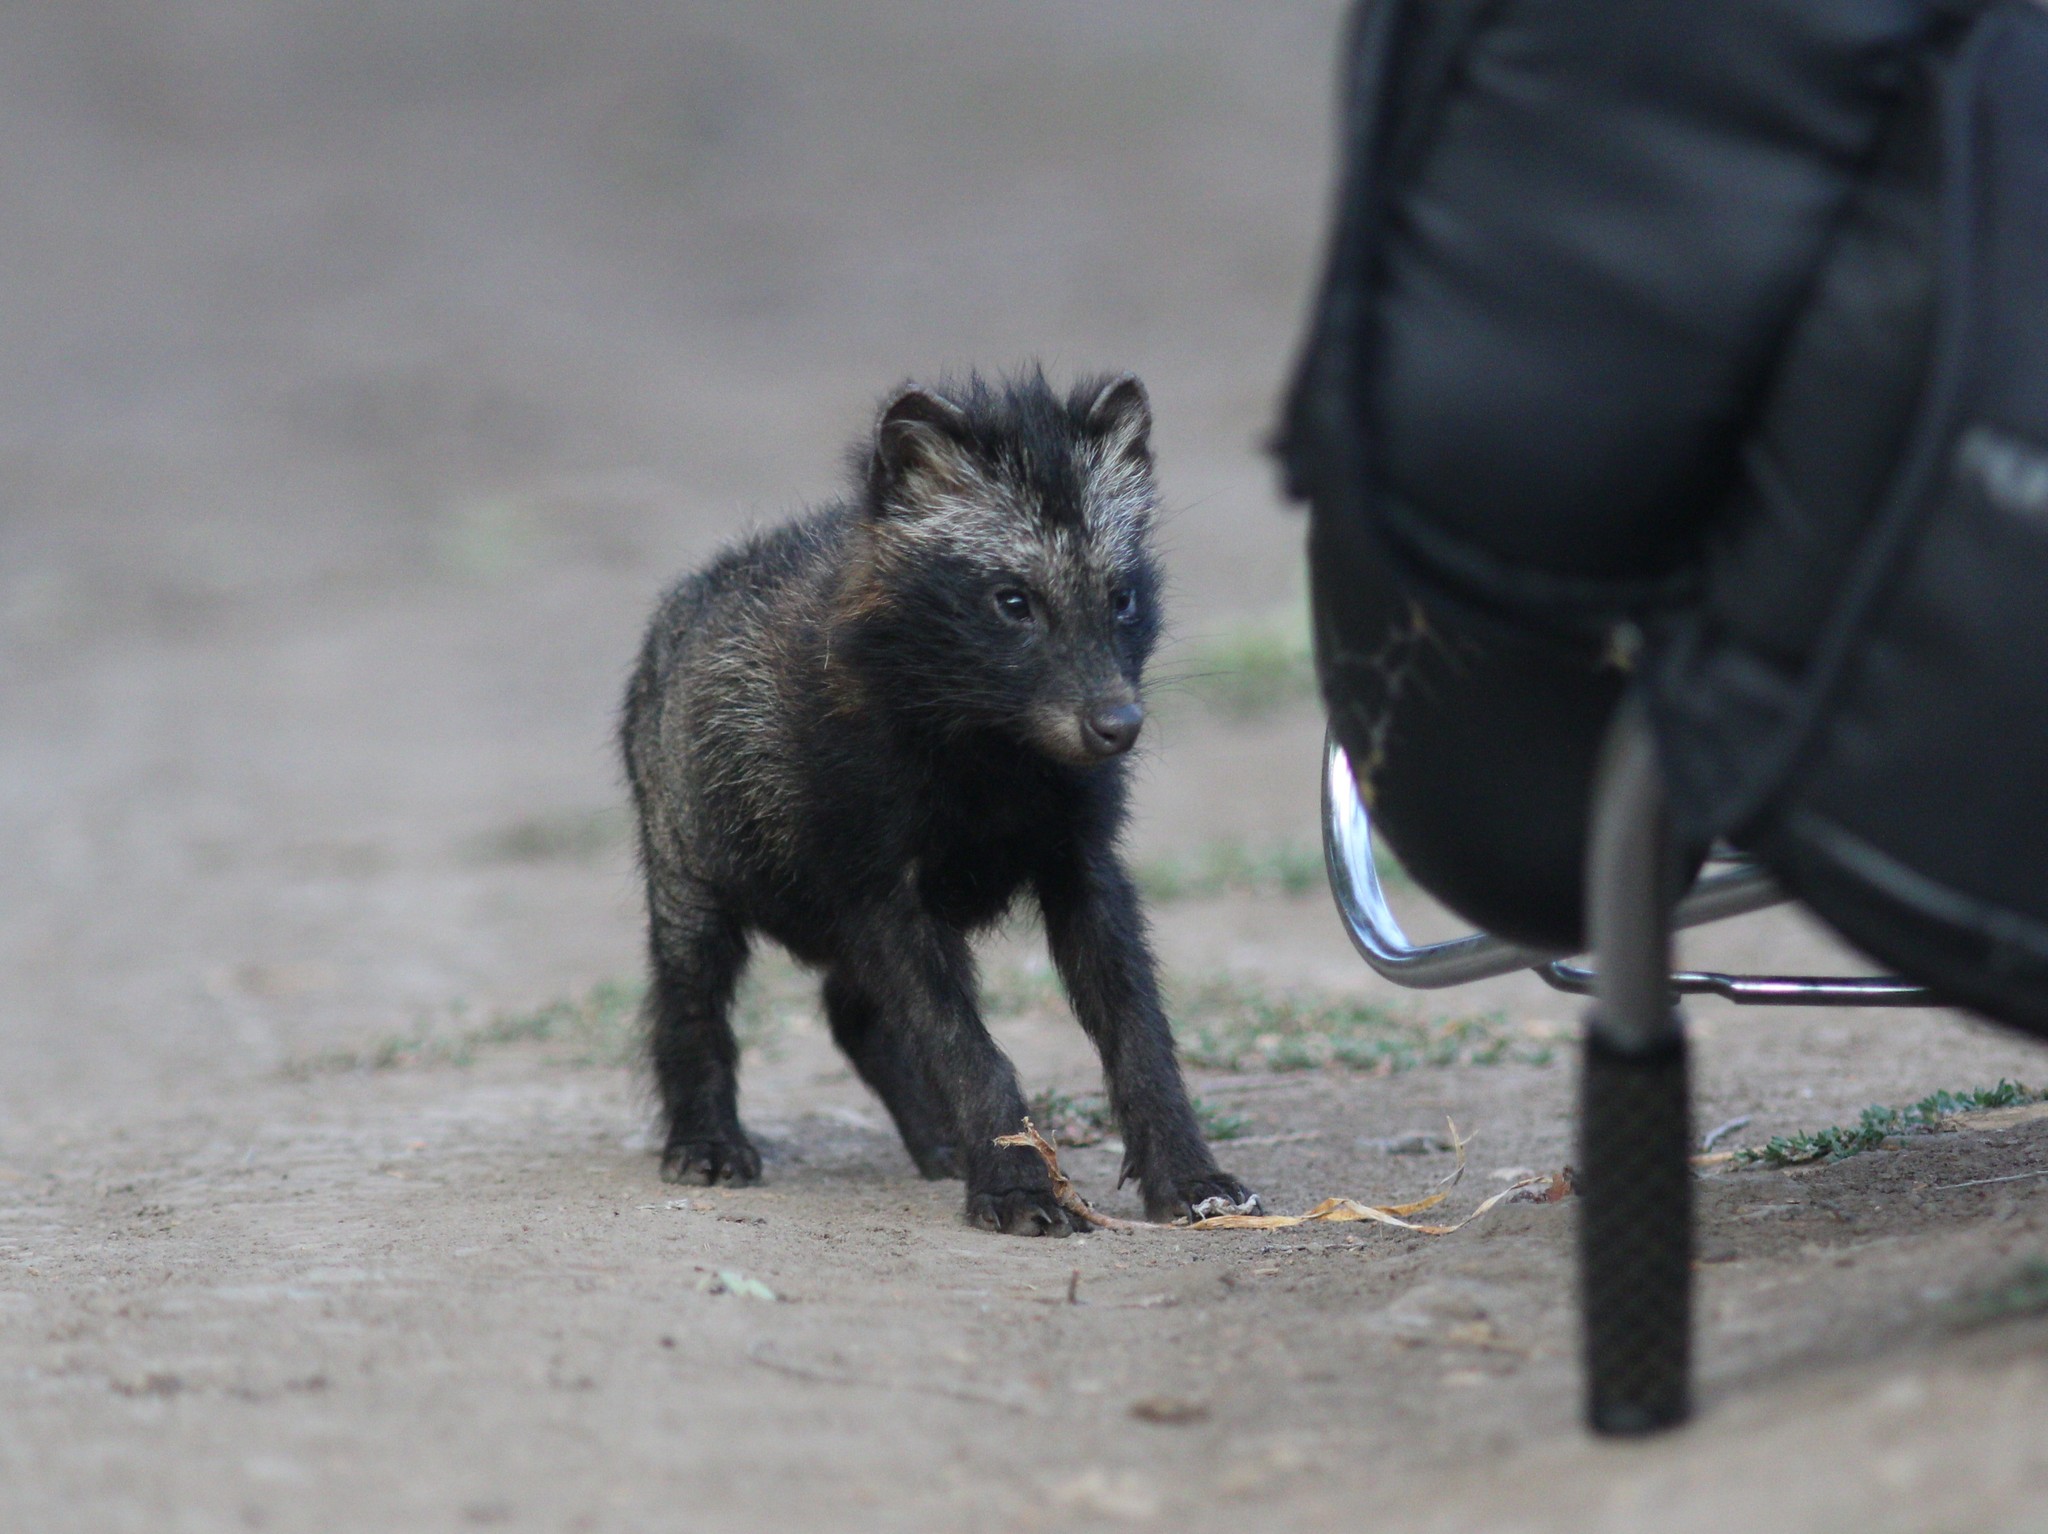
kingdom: Animalia
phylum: Chordata
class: Mammalia
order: Carnivora
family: Canidae
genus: Nyctereutes
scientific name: Nyctereutes procyonoides
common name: Raccoon dog
